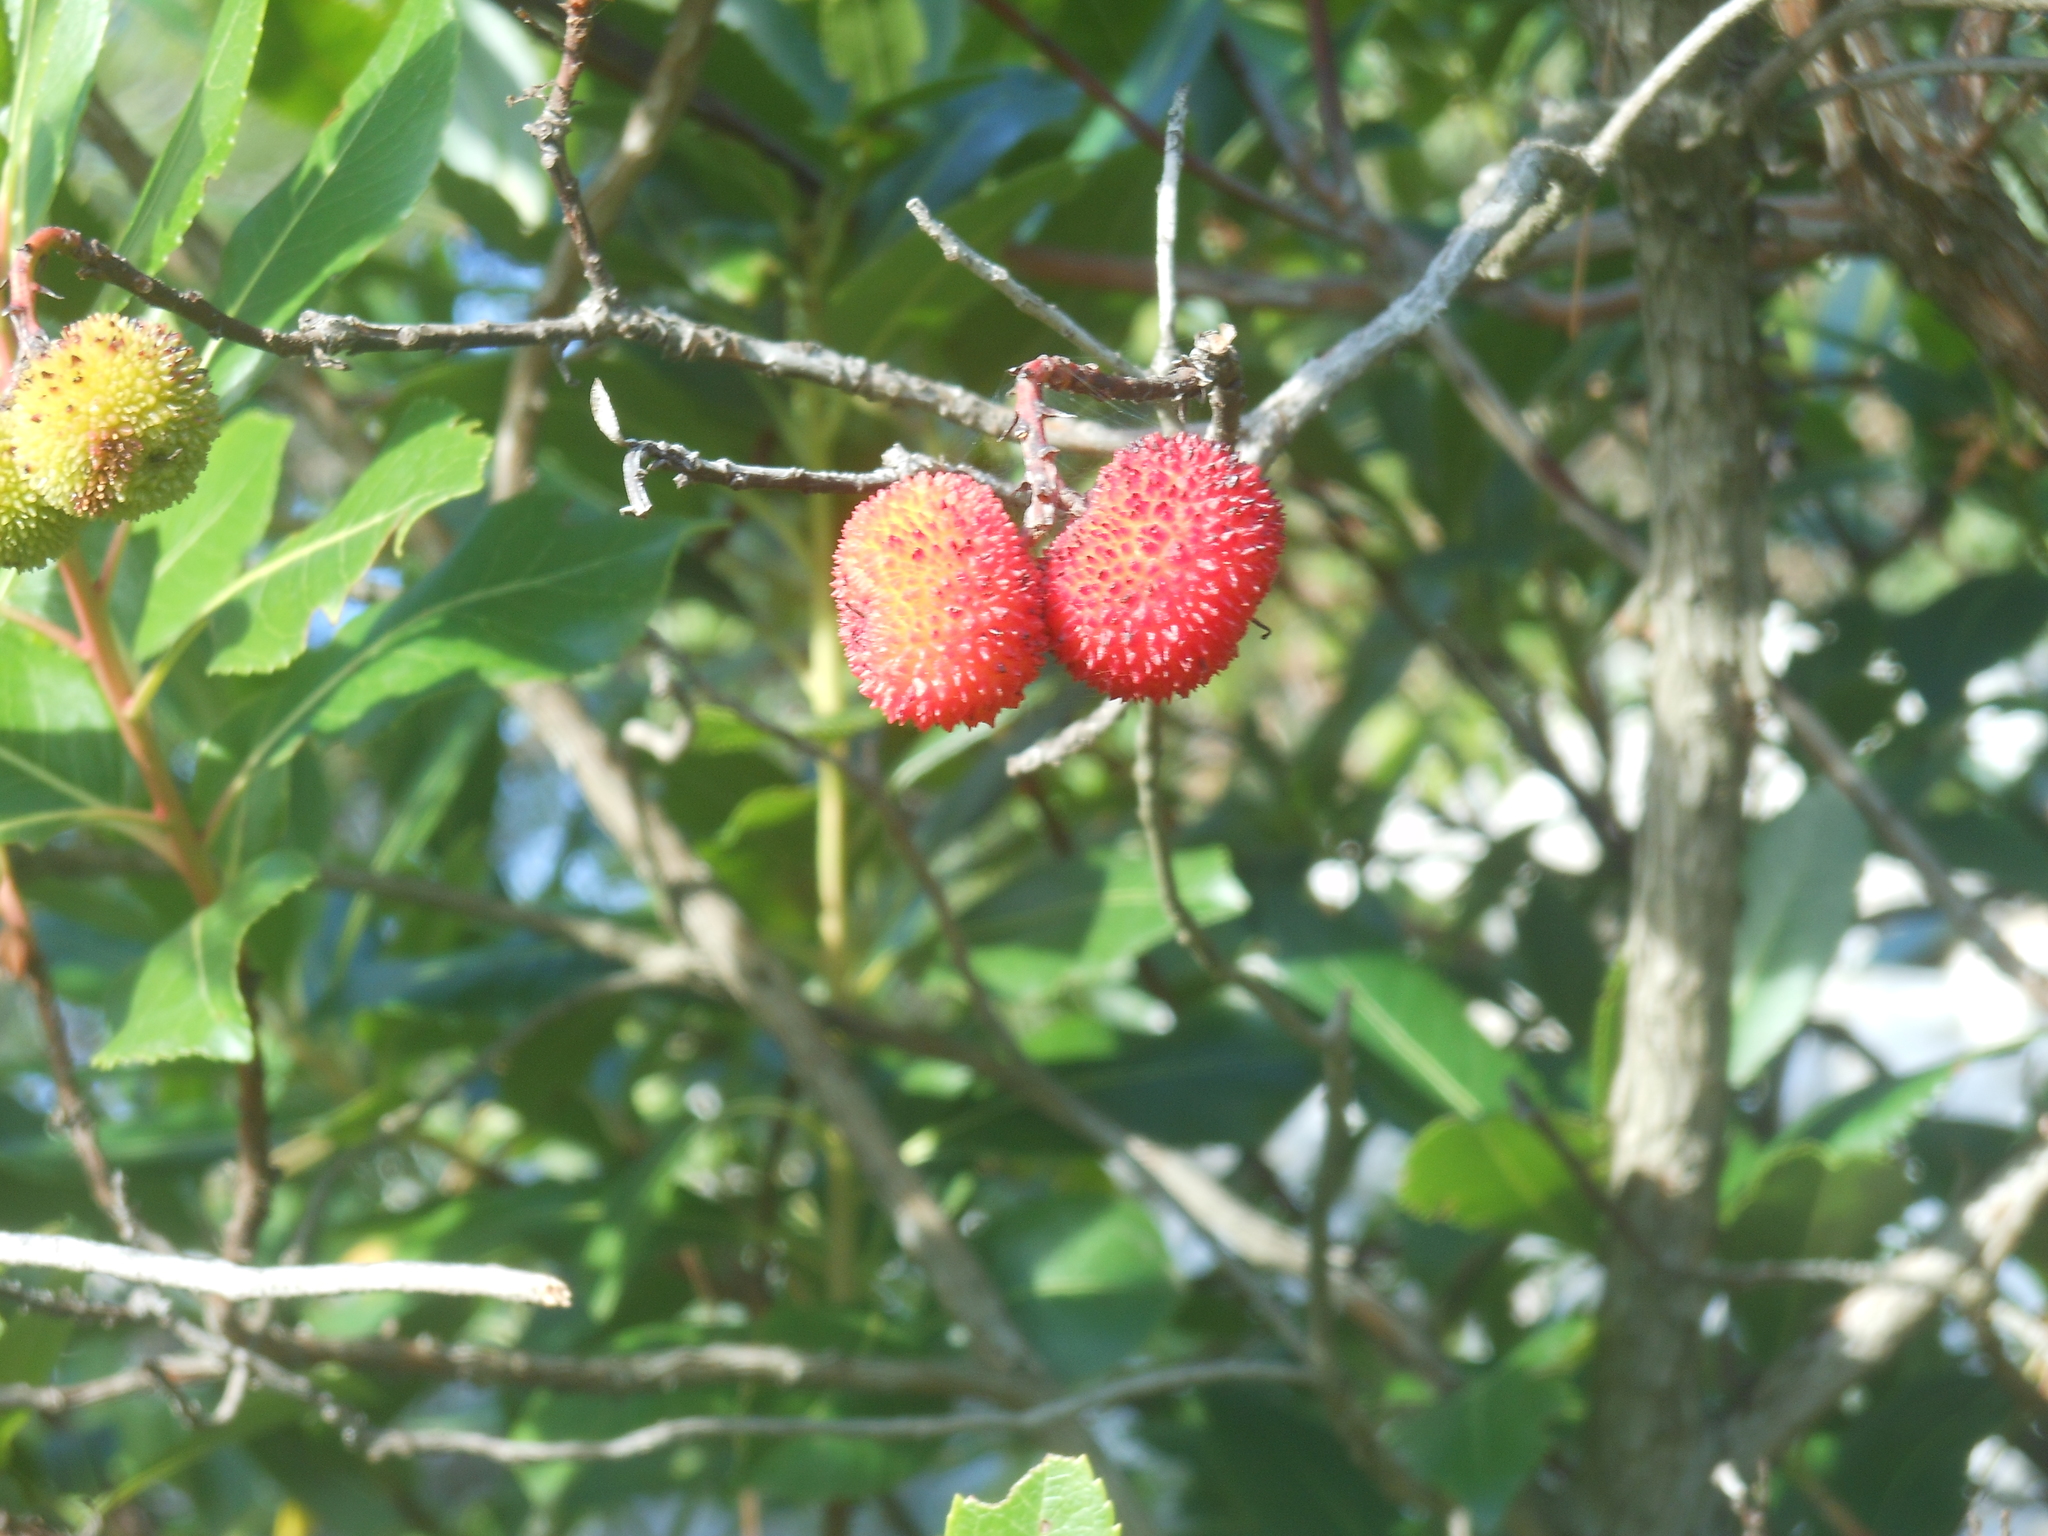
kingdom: Plantae
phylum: Tracheophyta
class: Magnoliopsida
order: Ericales
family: Ericaceae
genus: Arbutus
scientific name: Arbutus unedo
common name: Strawberry-tree
